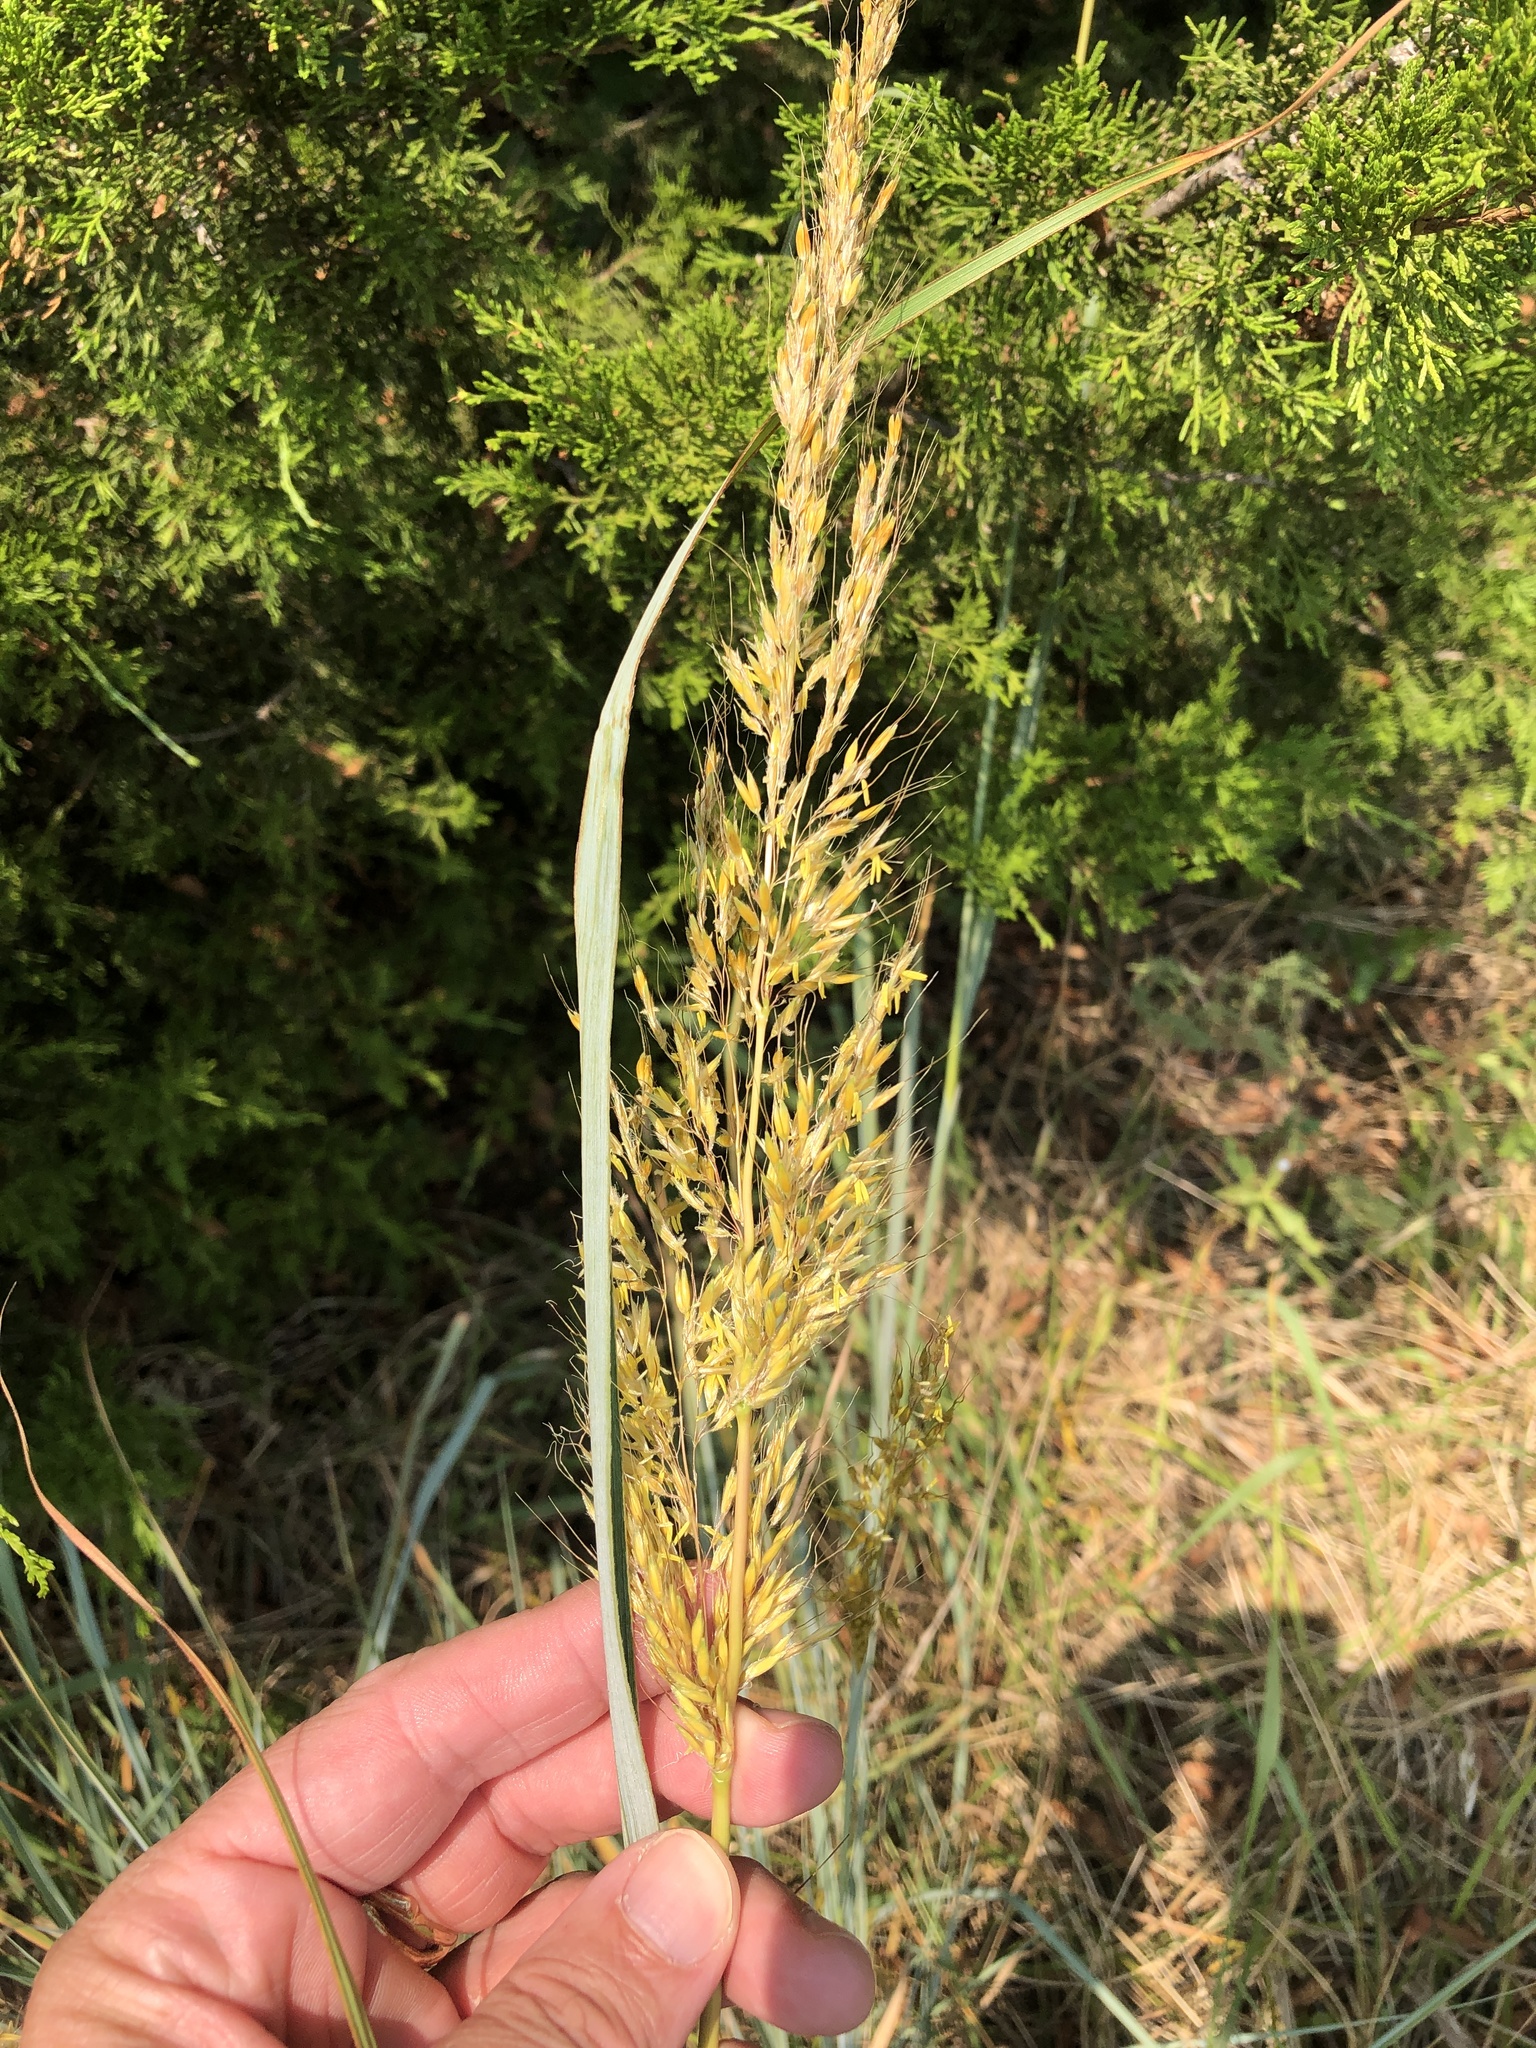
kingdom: Plantae
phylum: Tracheophyta
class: Liliopsida
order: Poales
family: Poaceae
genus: Sorghastrum
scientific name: Sorghastrum nutans
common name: Indian grass
